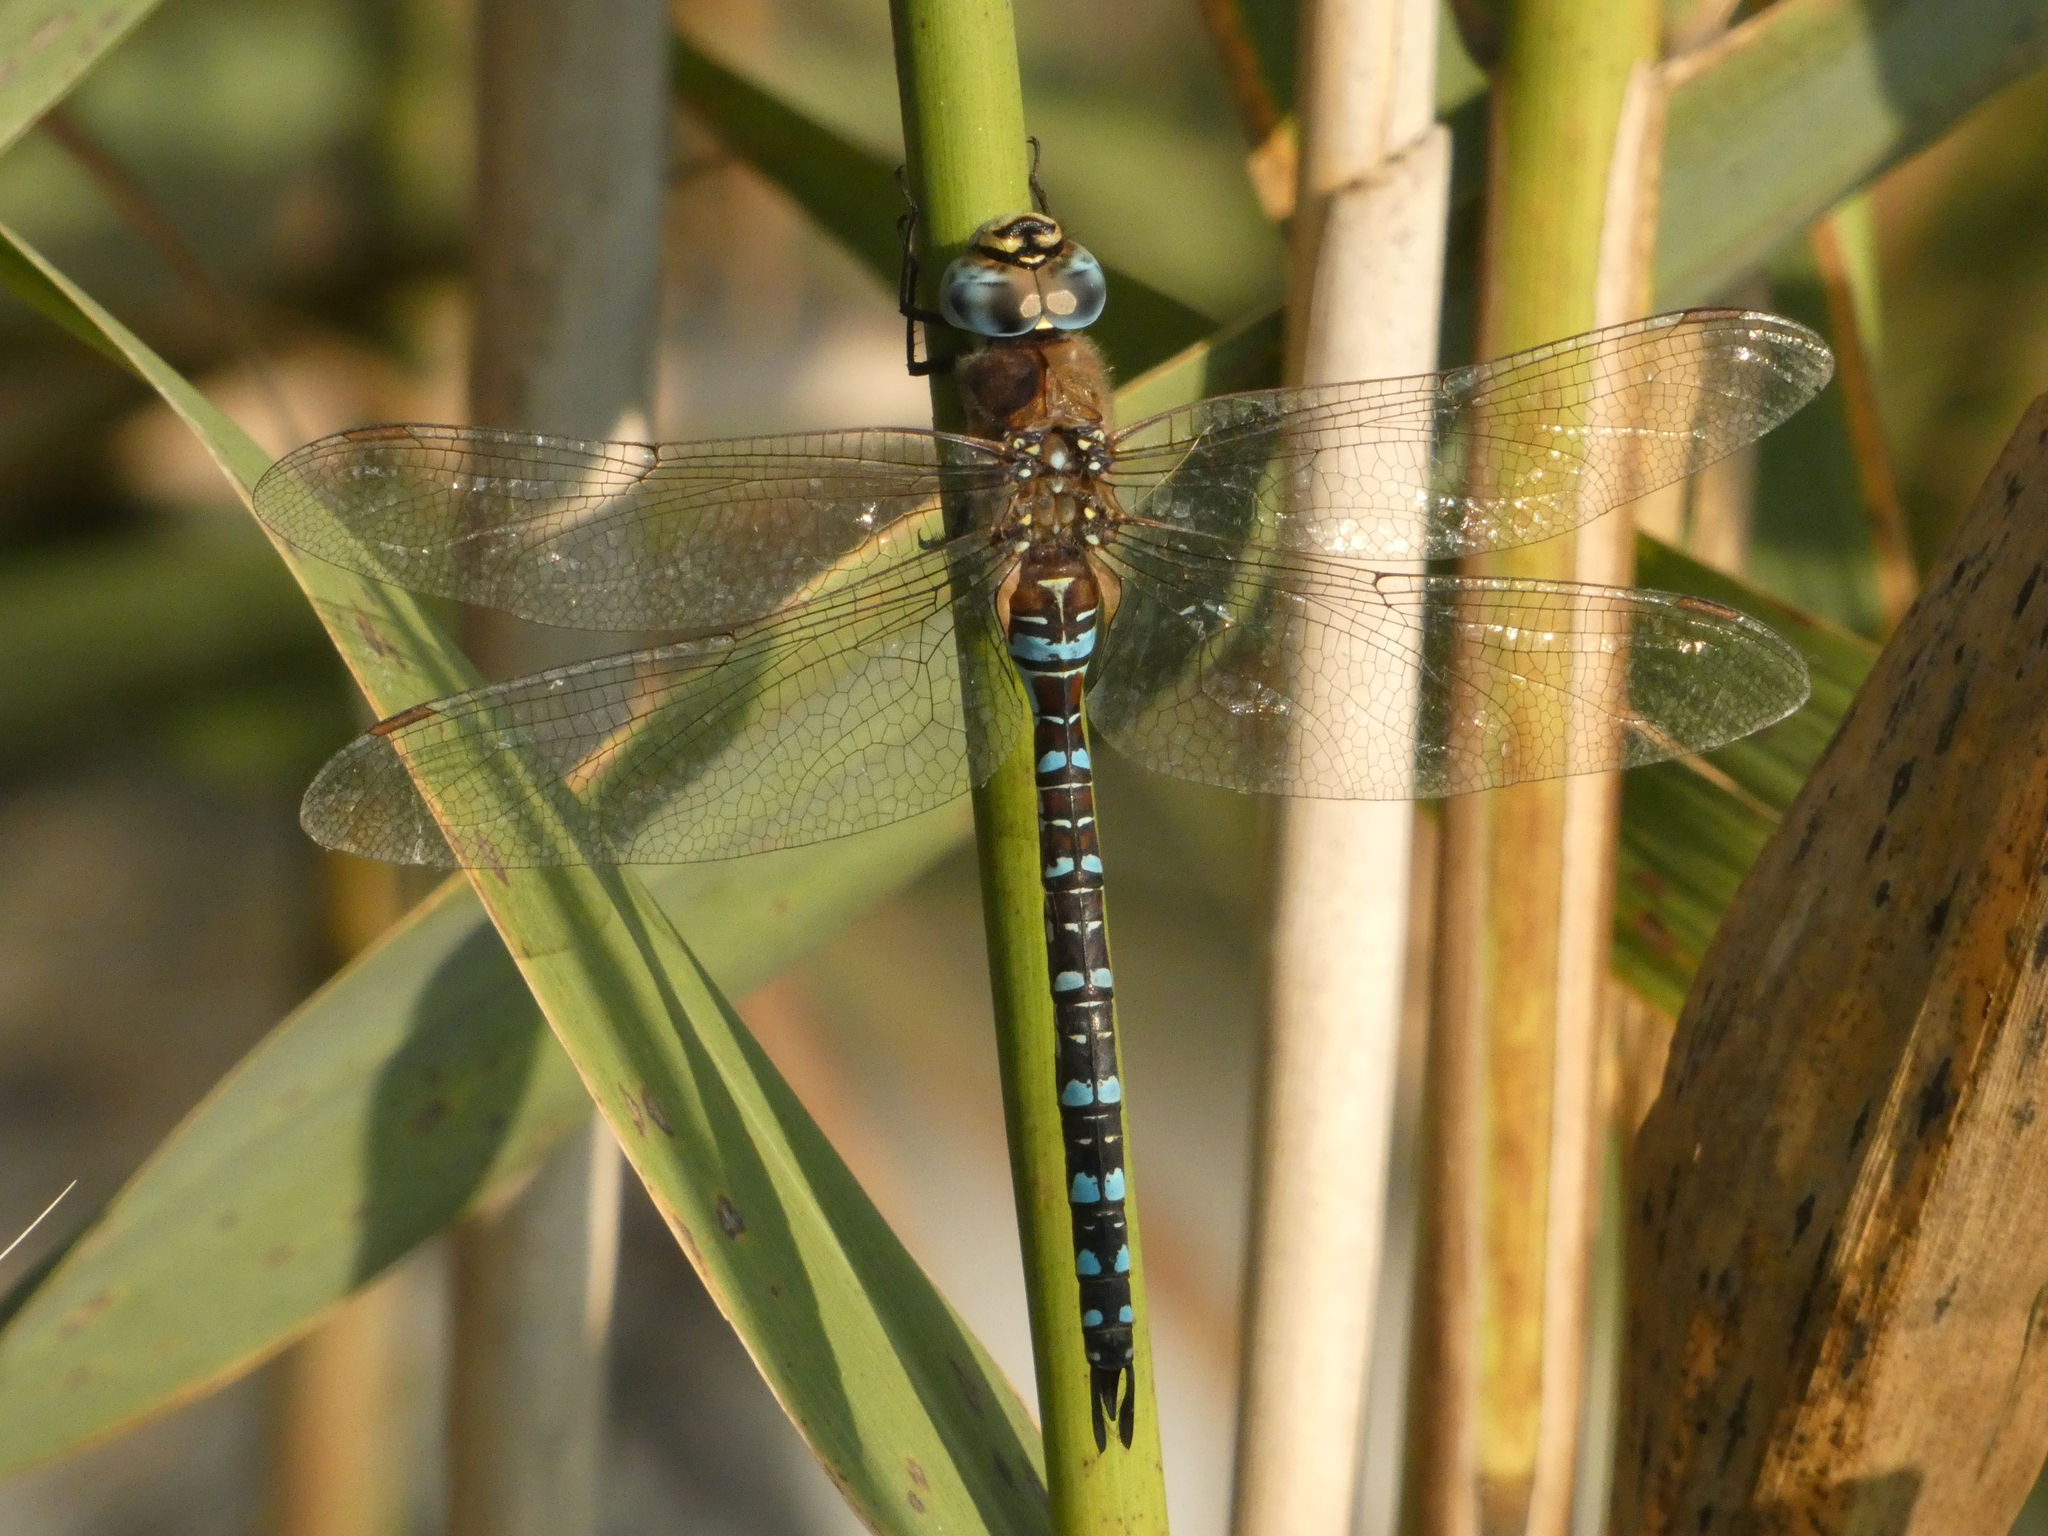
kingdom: Animalia
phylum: Arthropoda
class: Insecta
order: Odonata
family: Aeshnidae
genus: Aeshna
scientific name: Aeshna mixta
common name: Migrant hawker
